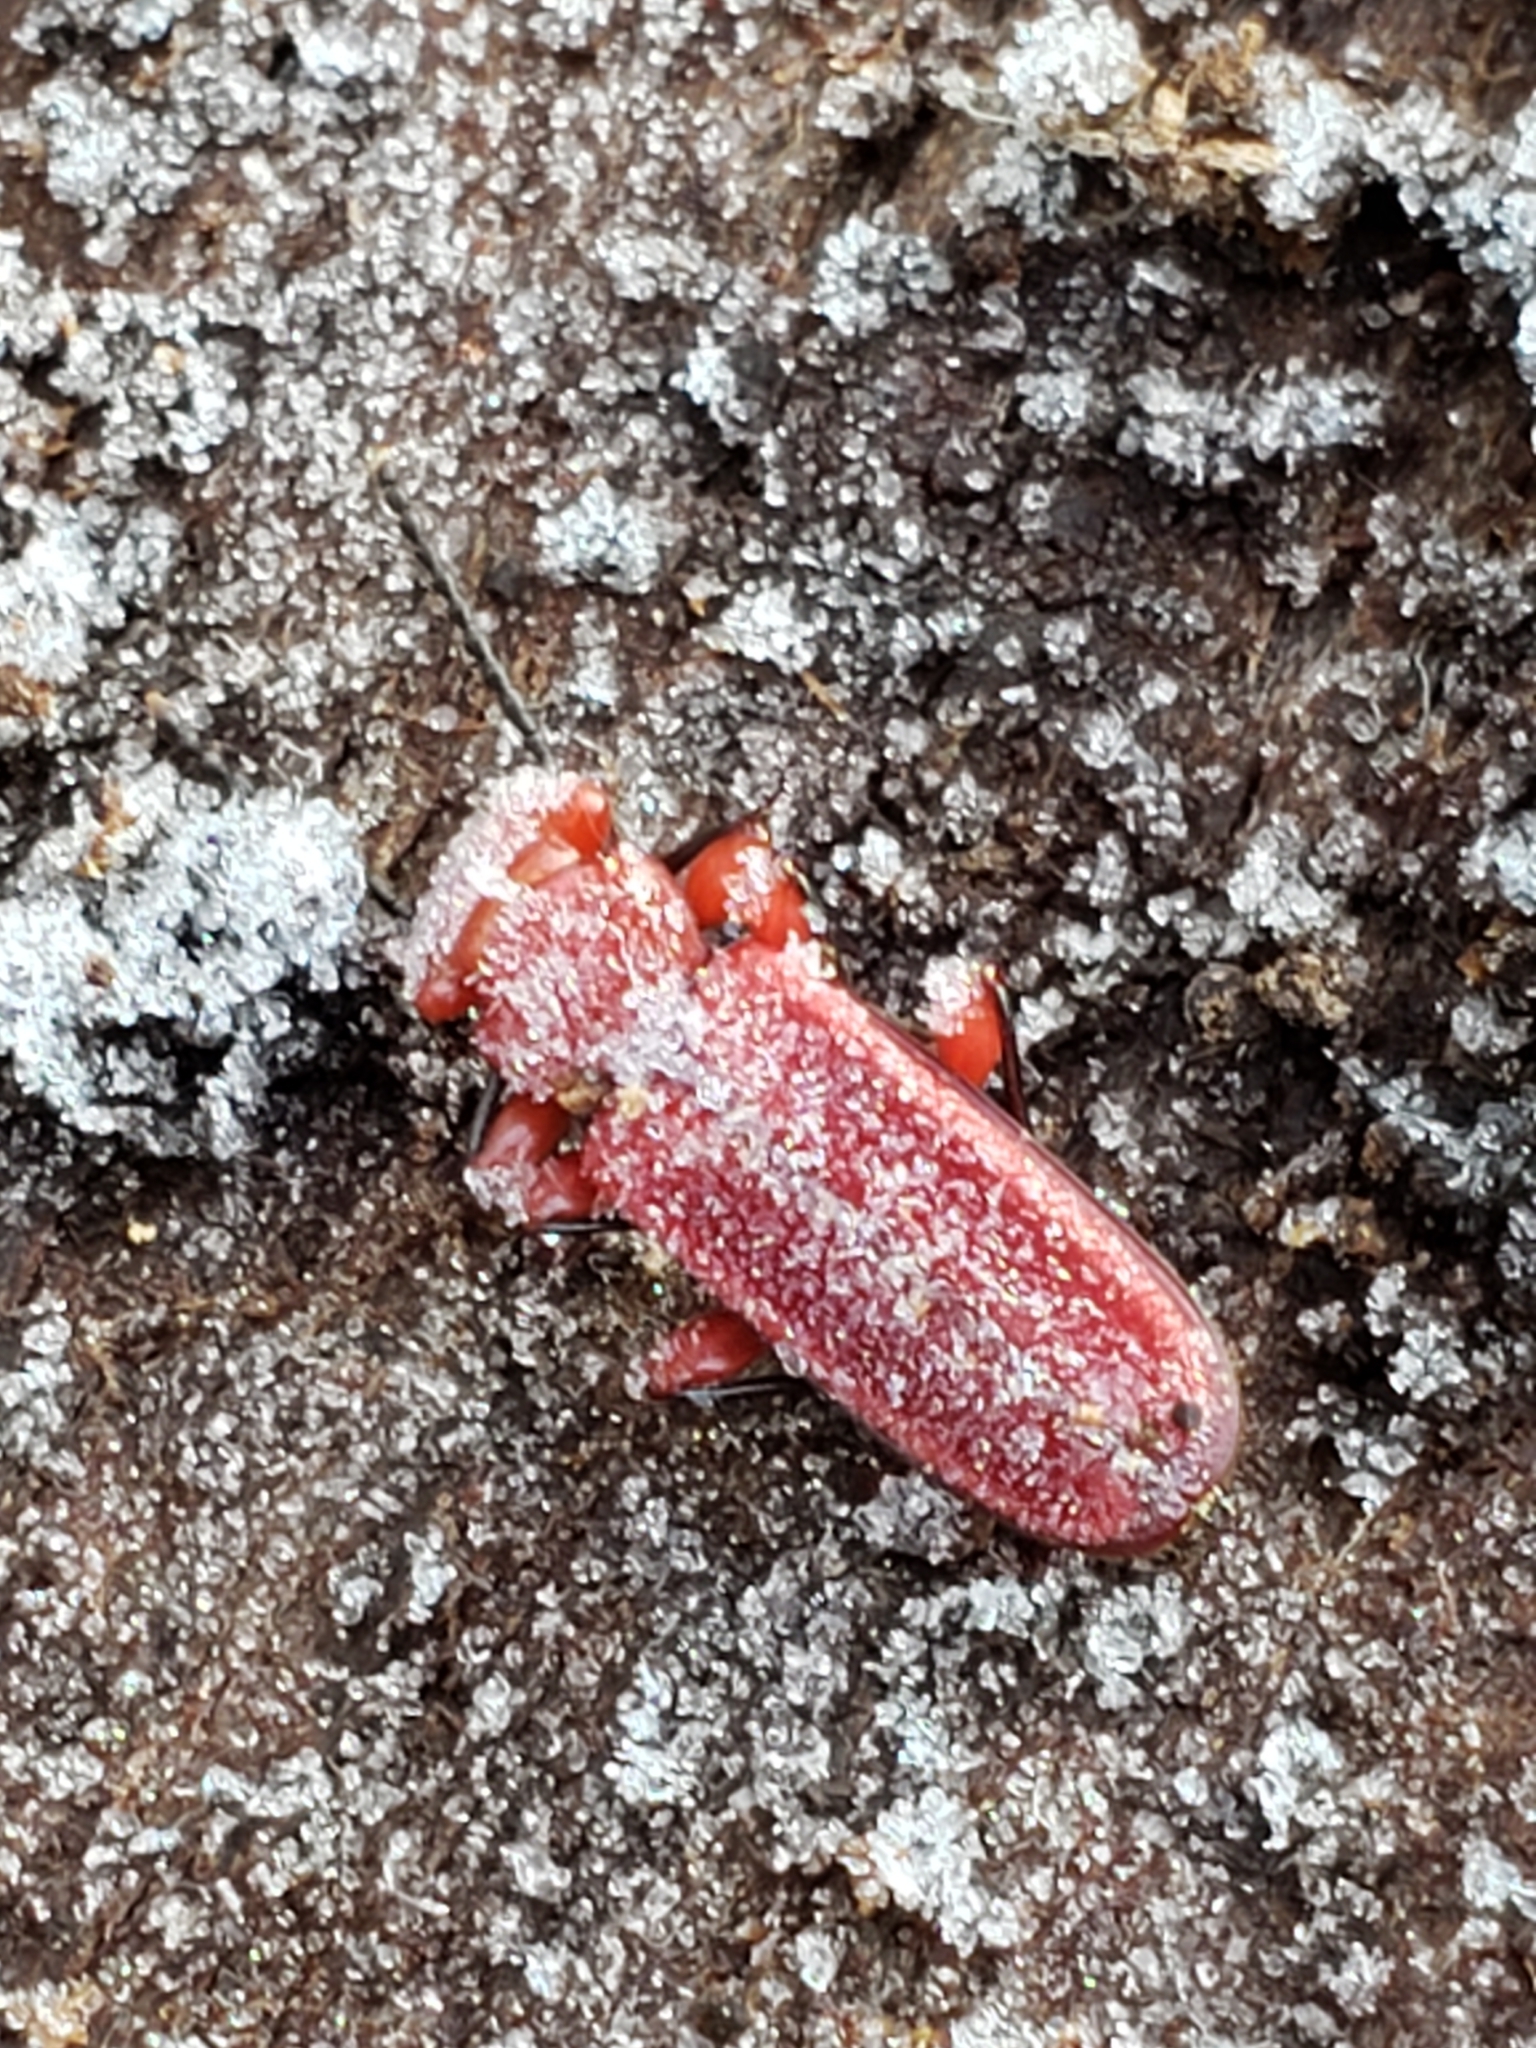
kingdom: Animalia
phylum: Arthropoda
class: Insecta
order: Coleoptera
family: Cucujidae
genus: Cucujus
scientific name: Cucujus clavipes
